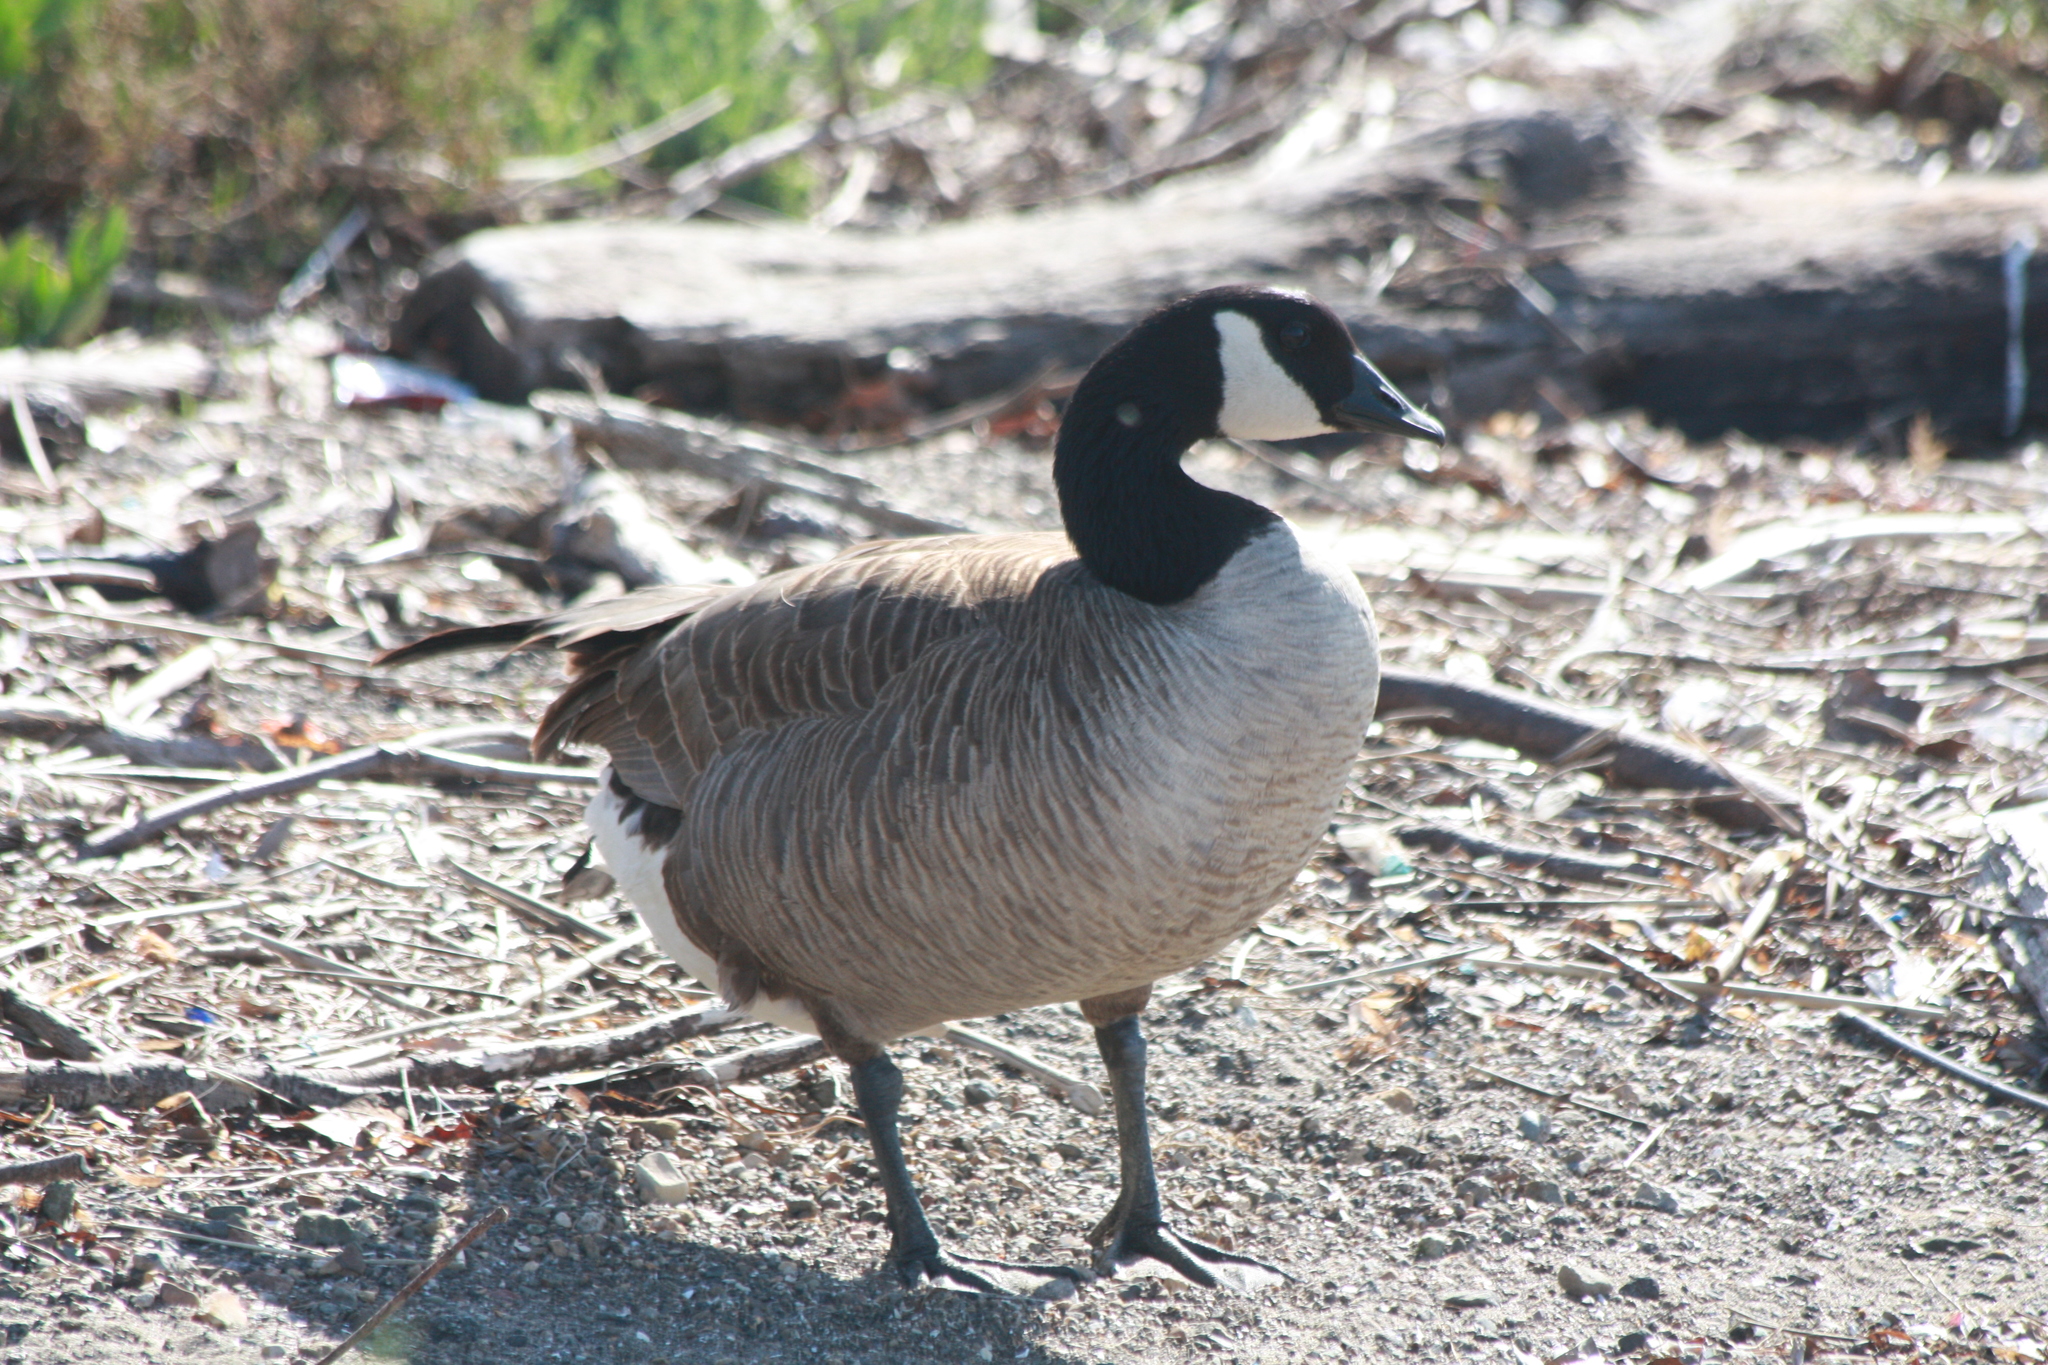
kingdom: Animalia
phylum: Chordata
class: Aves
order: Anseriformes
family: Anatidae
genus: Branta
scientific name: Branta canadensis
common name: Canada goose
